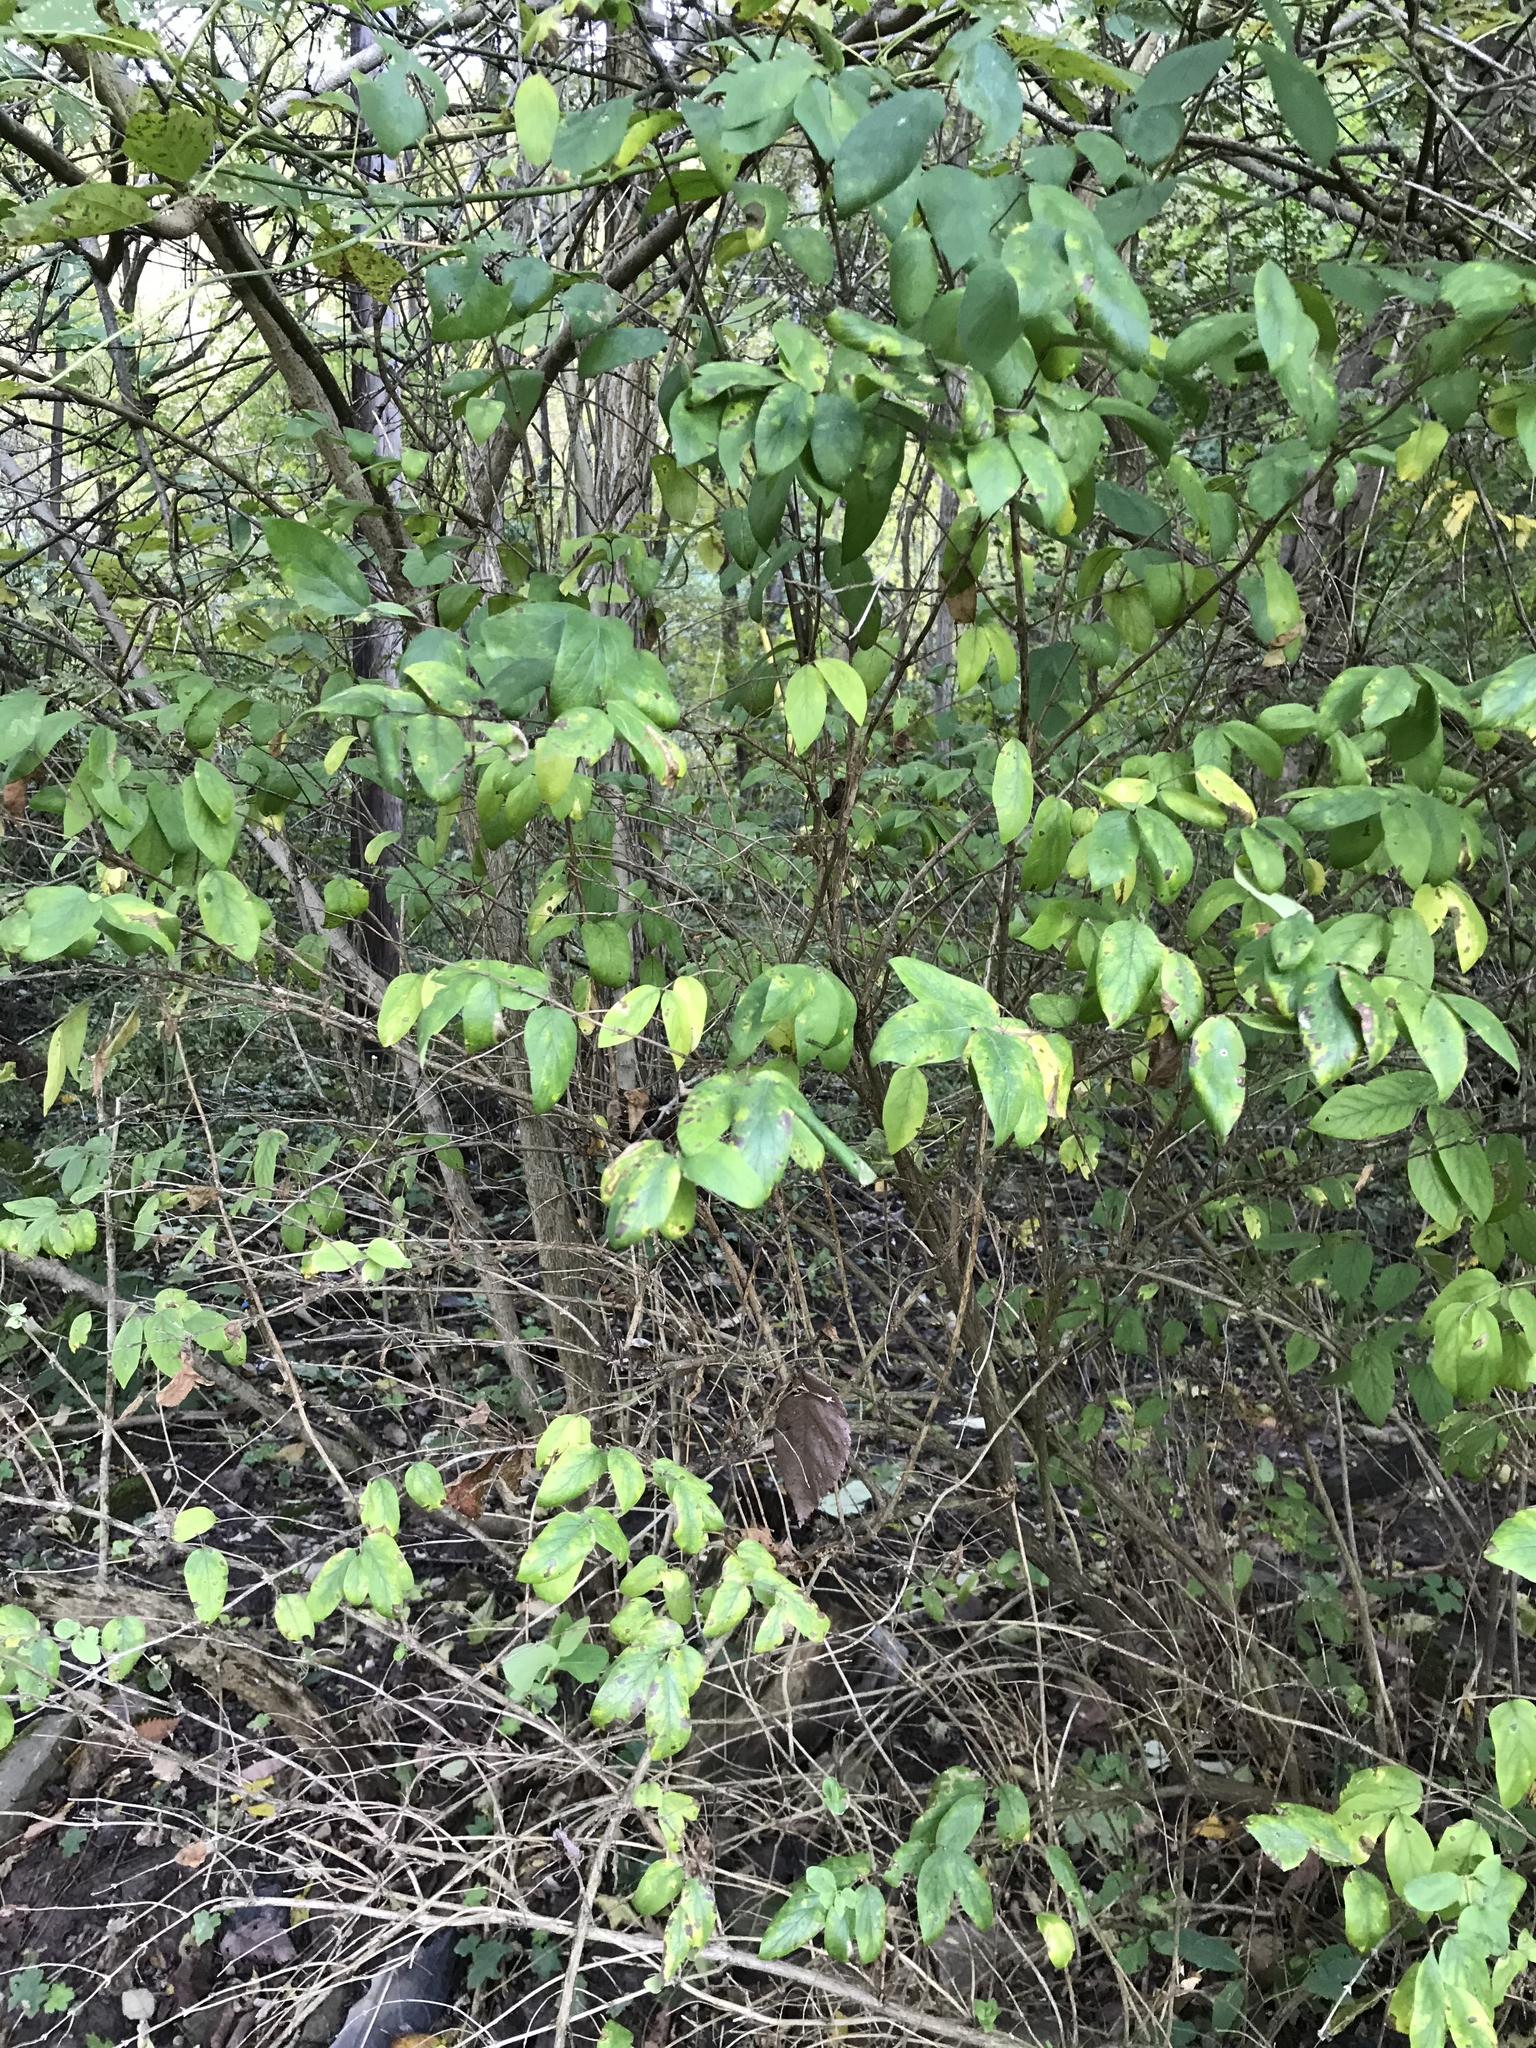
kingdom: Plantae
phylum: Tracheophyta
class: Magnoliopsida
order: Dipsacales
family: Caprifoliaceae
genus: Lonicera
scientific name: Lonicera morrowii
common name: Morrow's honeysuckle
